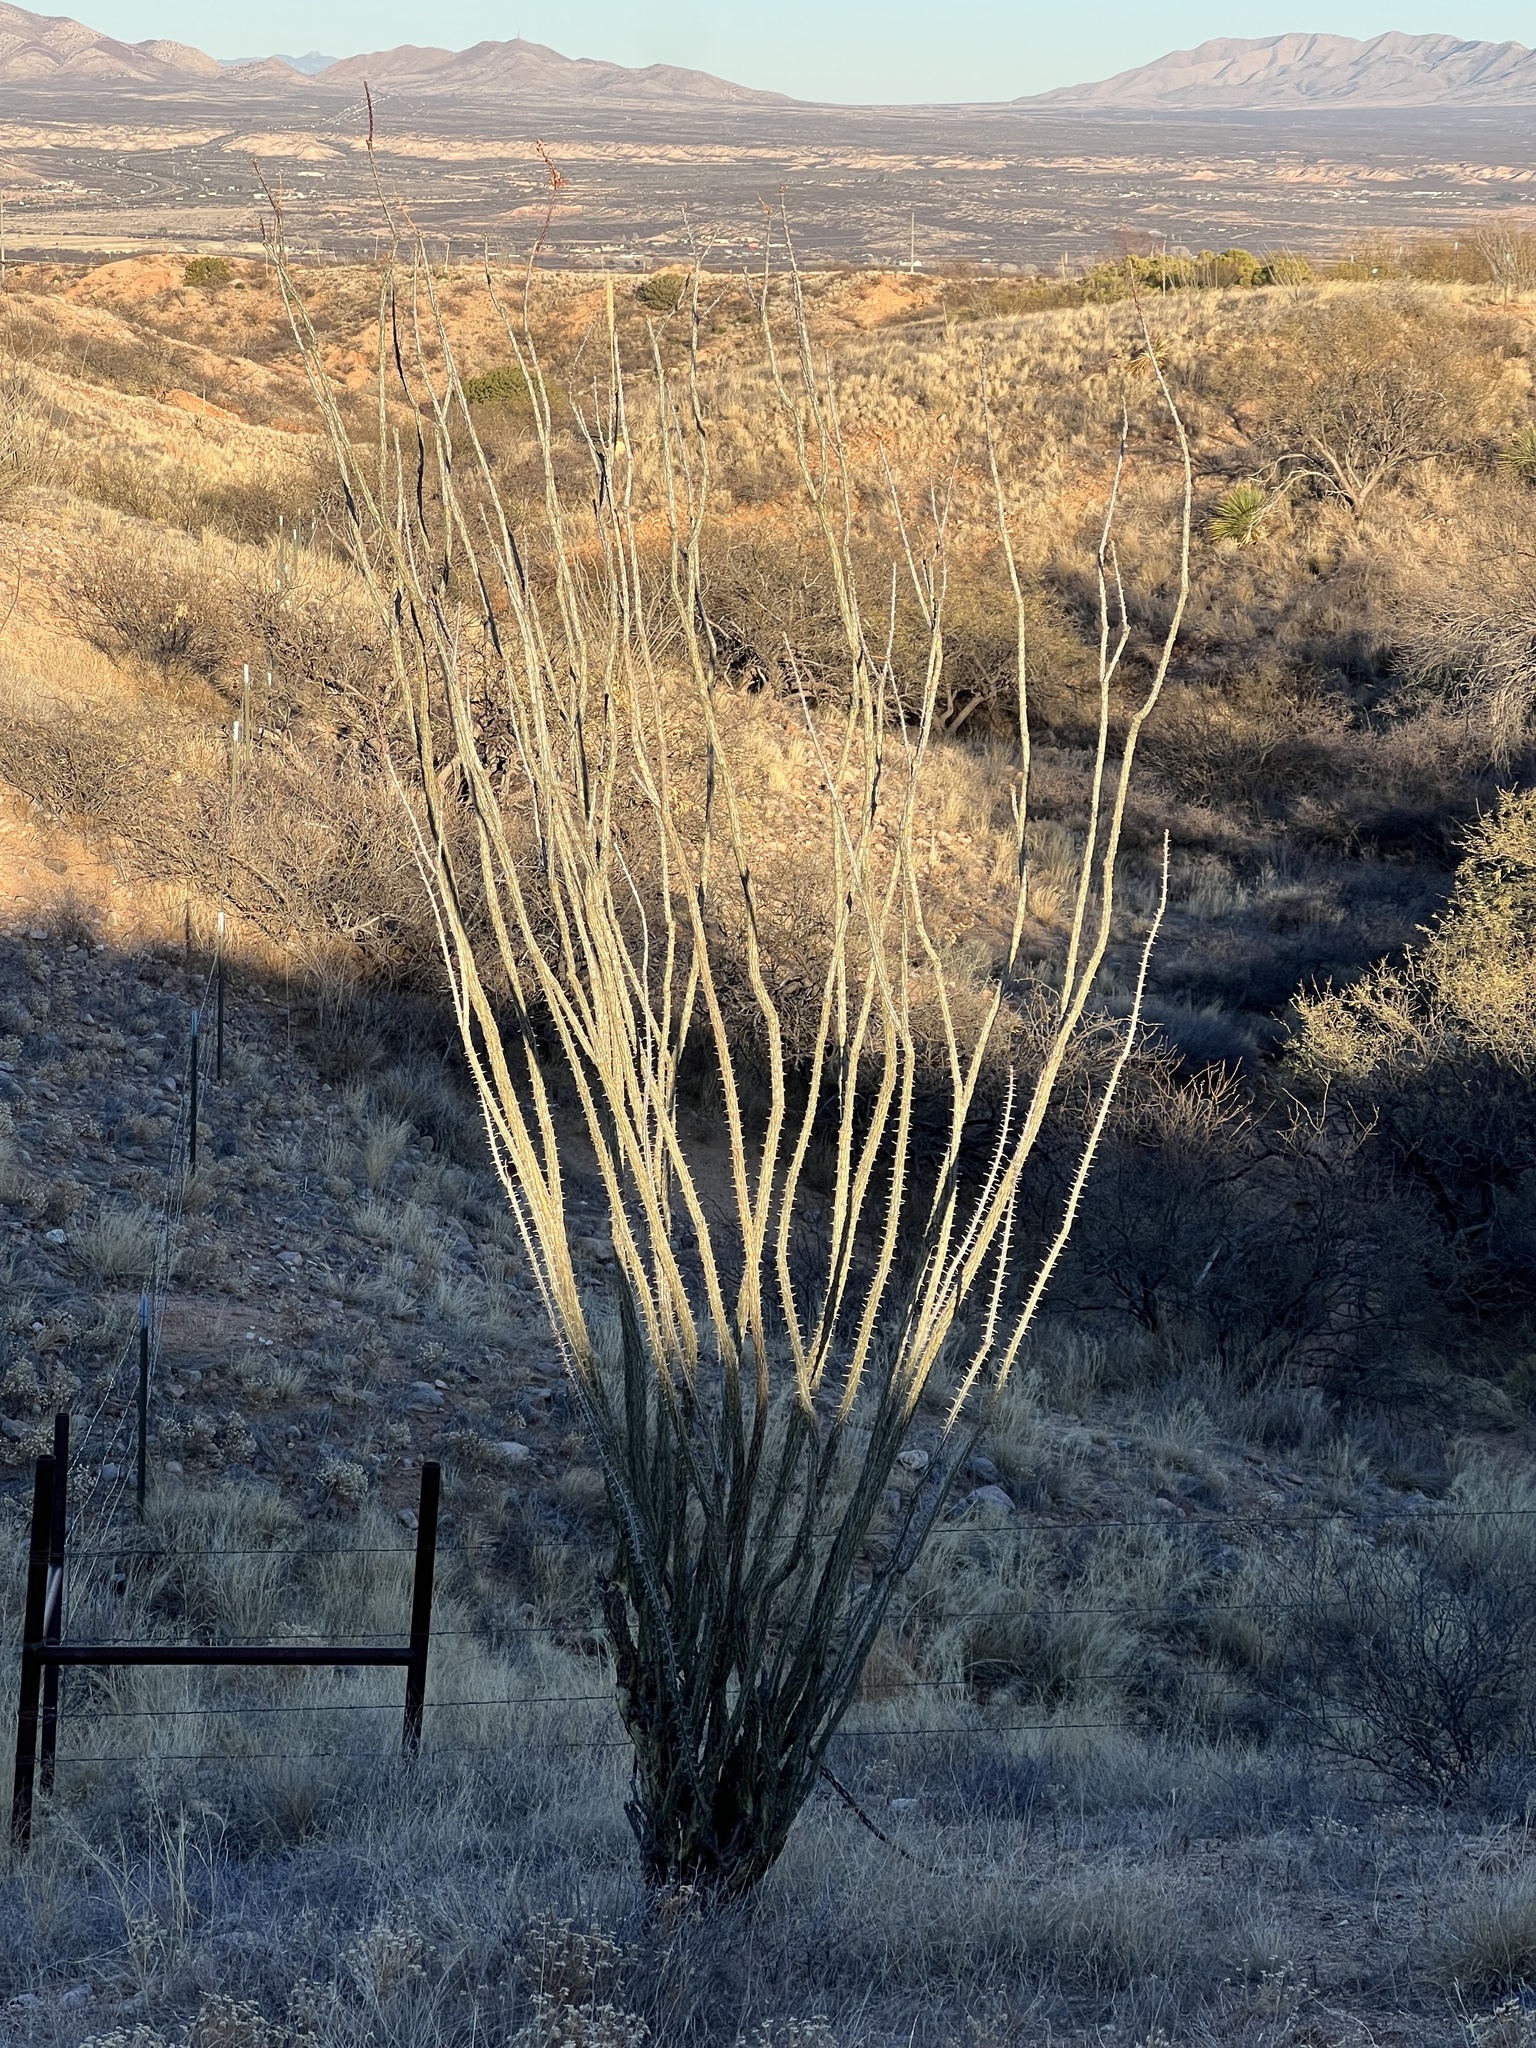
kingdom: Plantae
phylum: Tracheophyta
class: Magnoliopsida
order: Ericales
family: Fouquieriaceae
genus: Fouquieria
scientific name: Fouquieria splendens
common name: Vine-cactus
